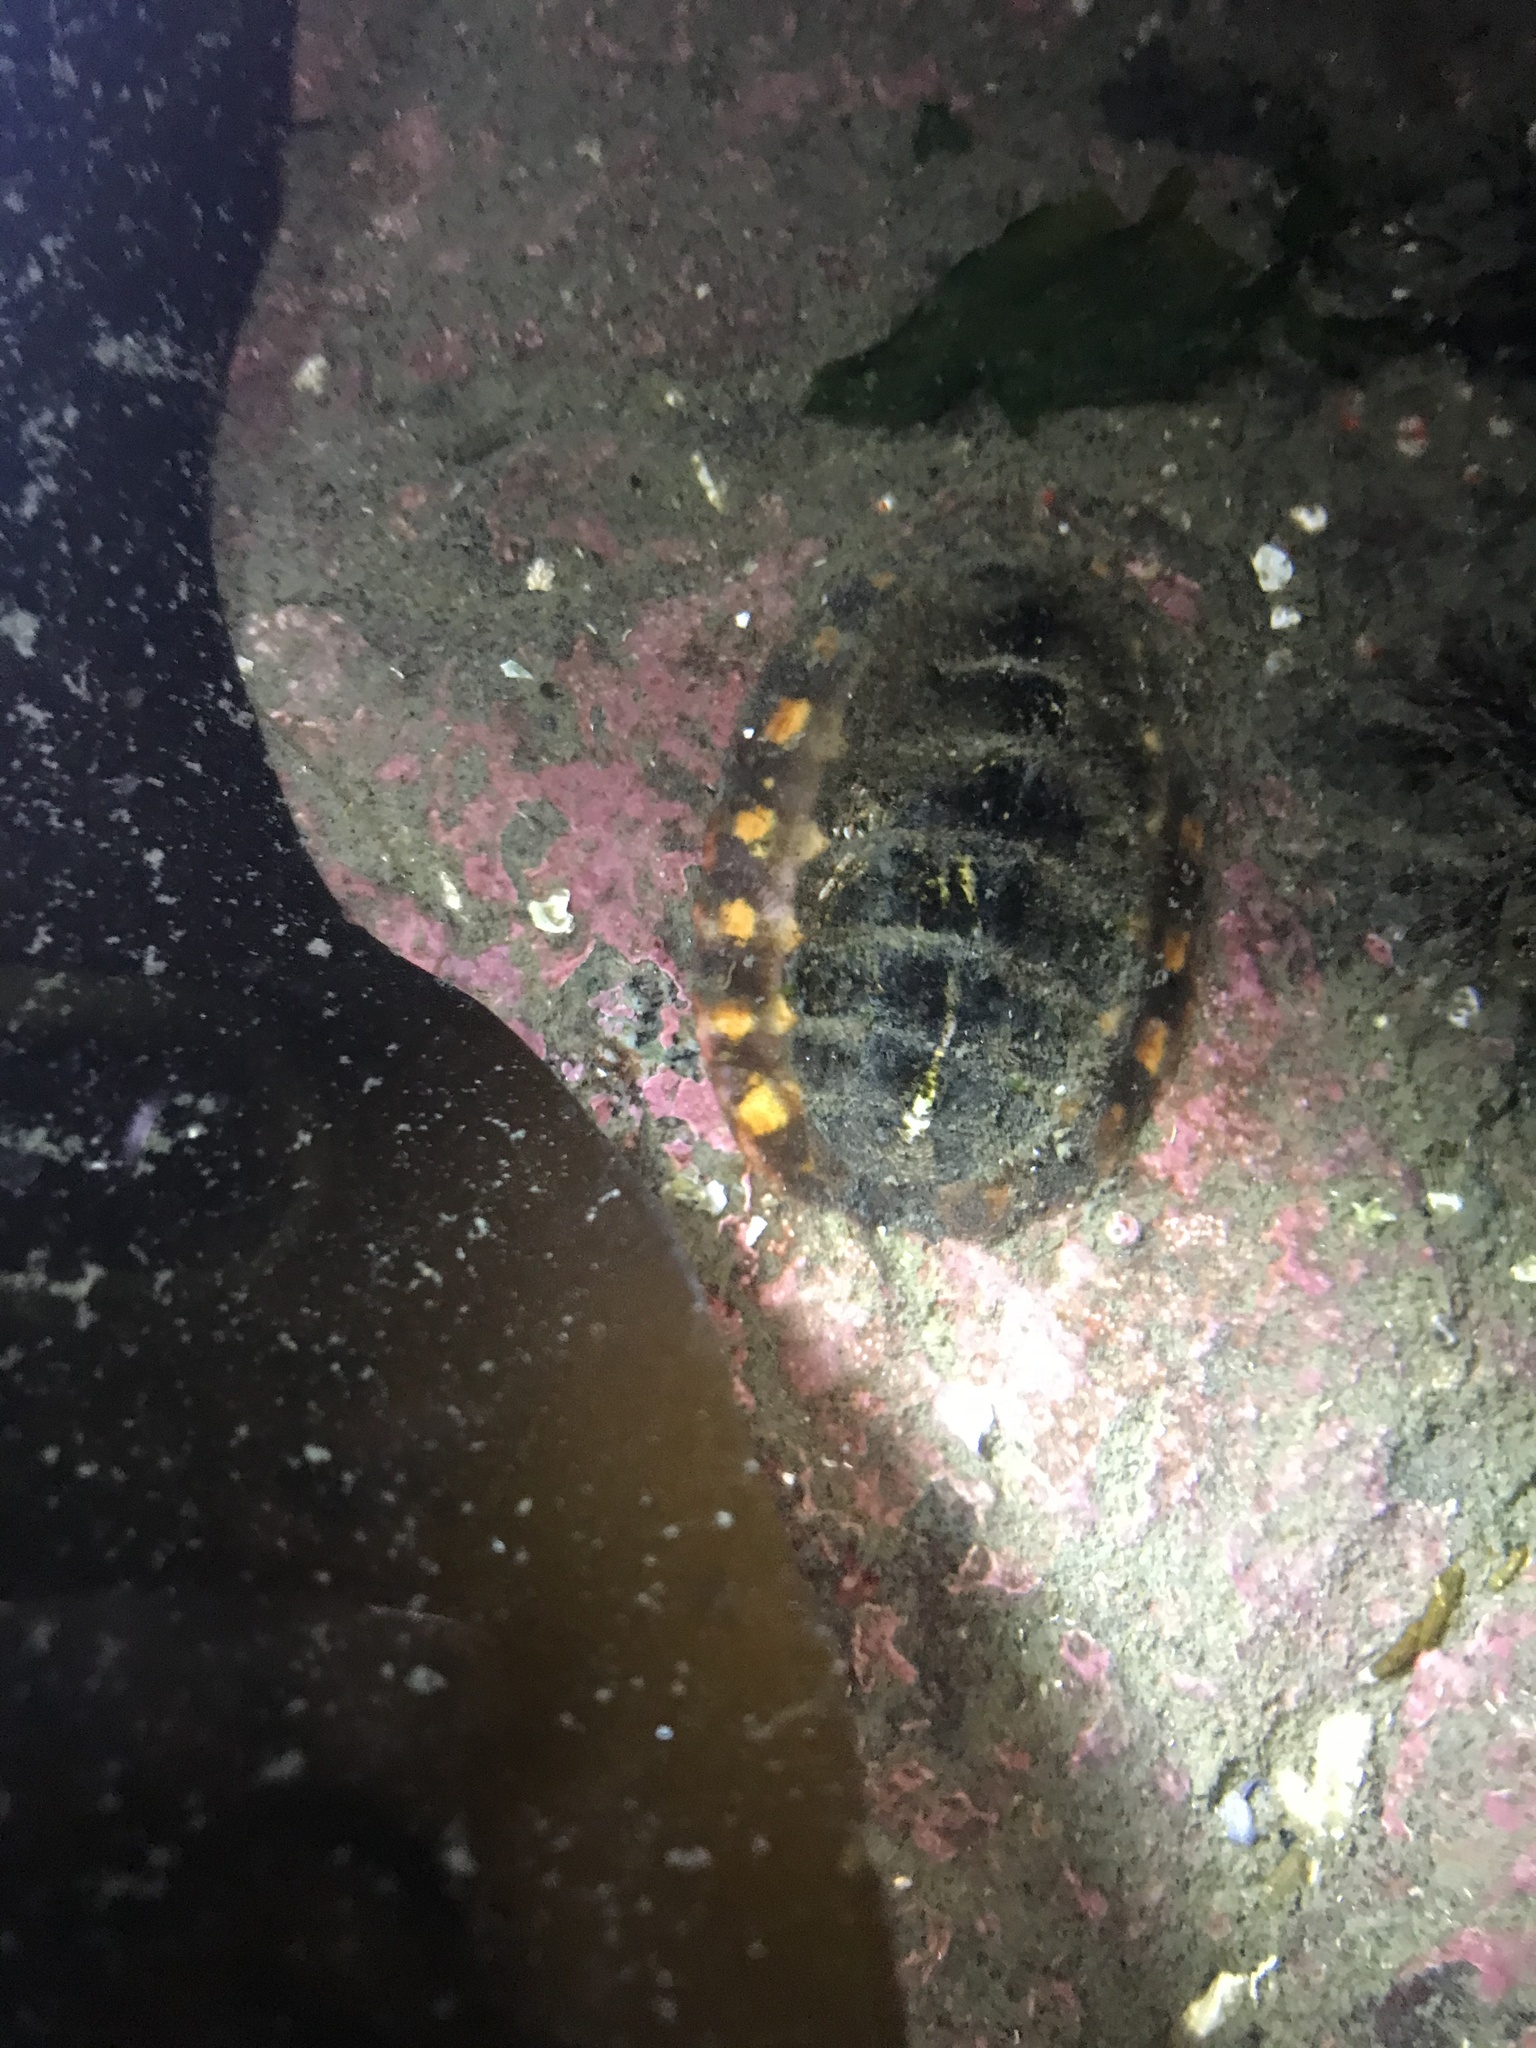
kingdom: Animalia
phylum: Mollusca
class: Polyplacophora
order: Chitonida
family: Tonicellidae
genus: Tonicella
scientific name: Tonicella lineata
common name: Lined chiton
